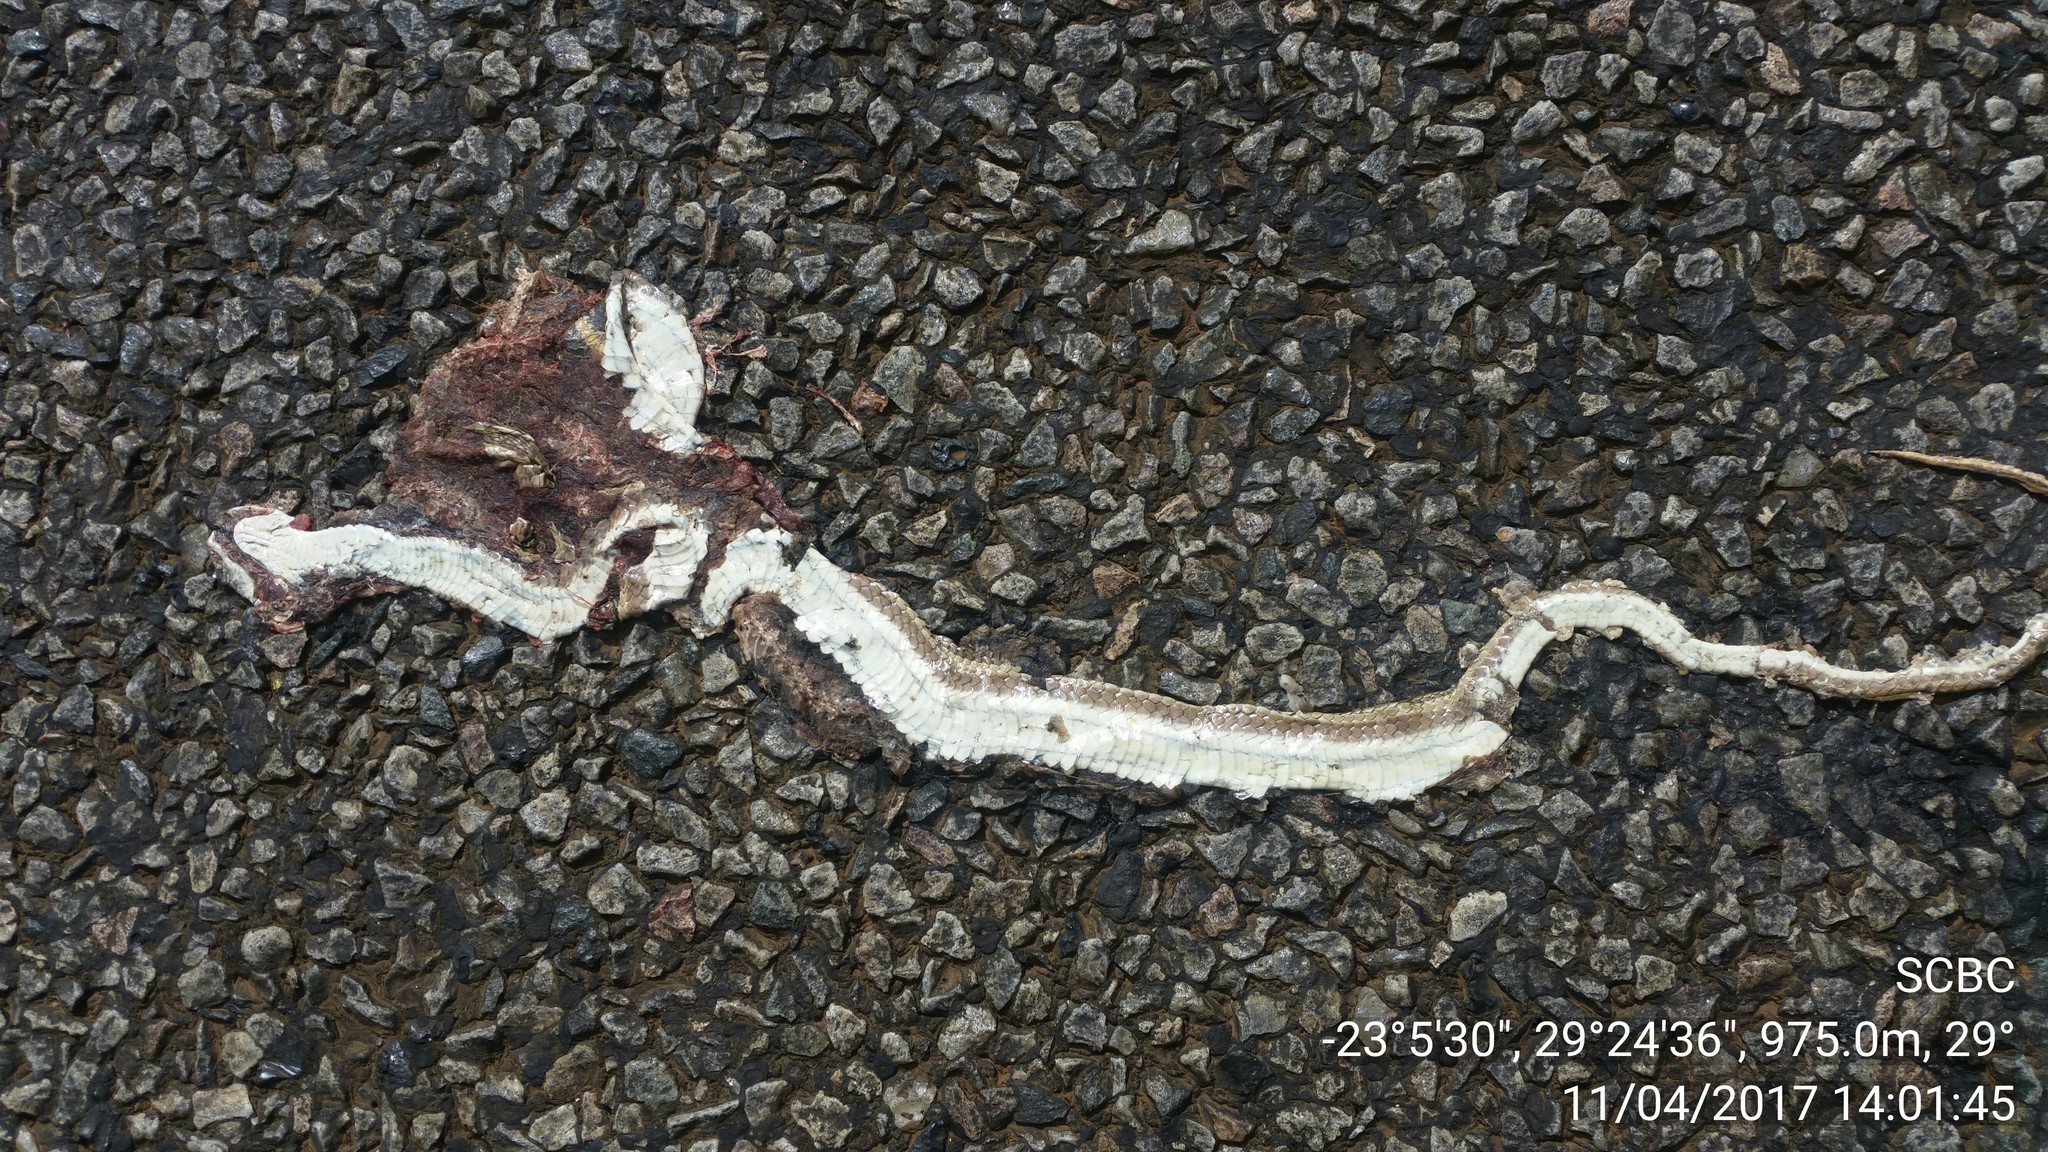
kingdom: Animalia
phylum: Chordata
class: Squamata
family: Psammophiidae
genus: Psammophis
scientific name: Psammophis brevirostris
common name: Short-snouted grass snake
